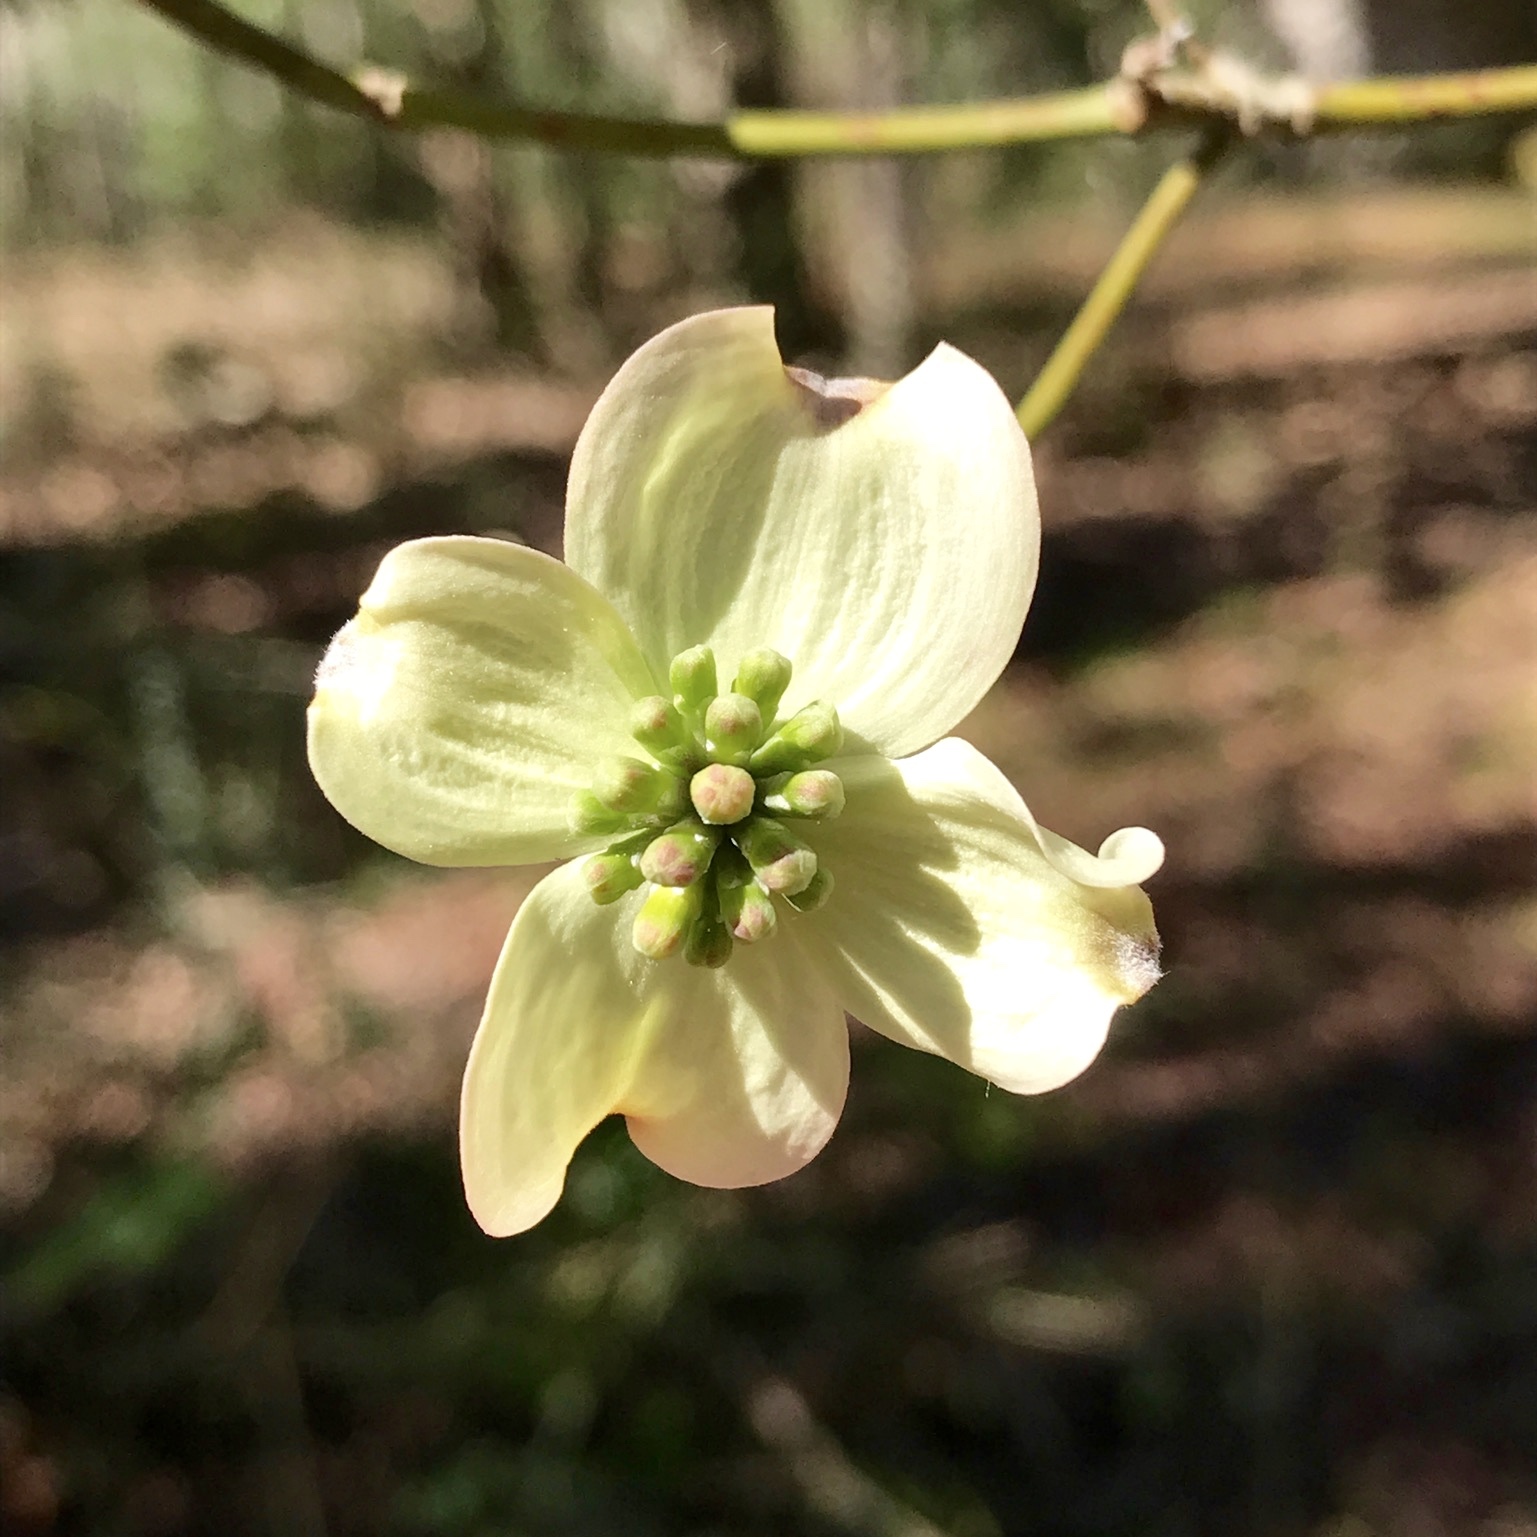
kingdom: Plantae
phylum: Tracheophyta
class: Magnoliopsida
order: Cornales
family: Cornaceae
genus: Cornus
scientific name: Cornus florida
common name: Flowering dogwood
